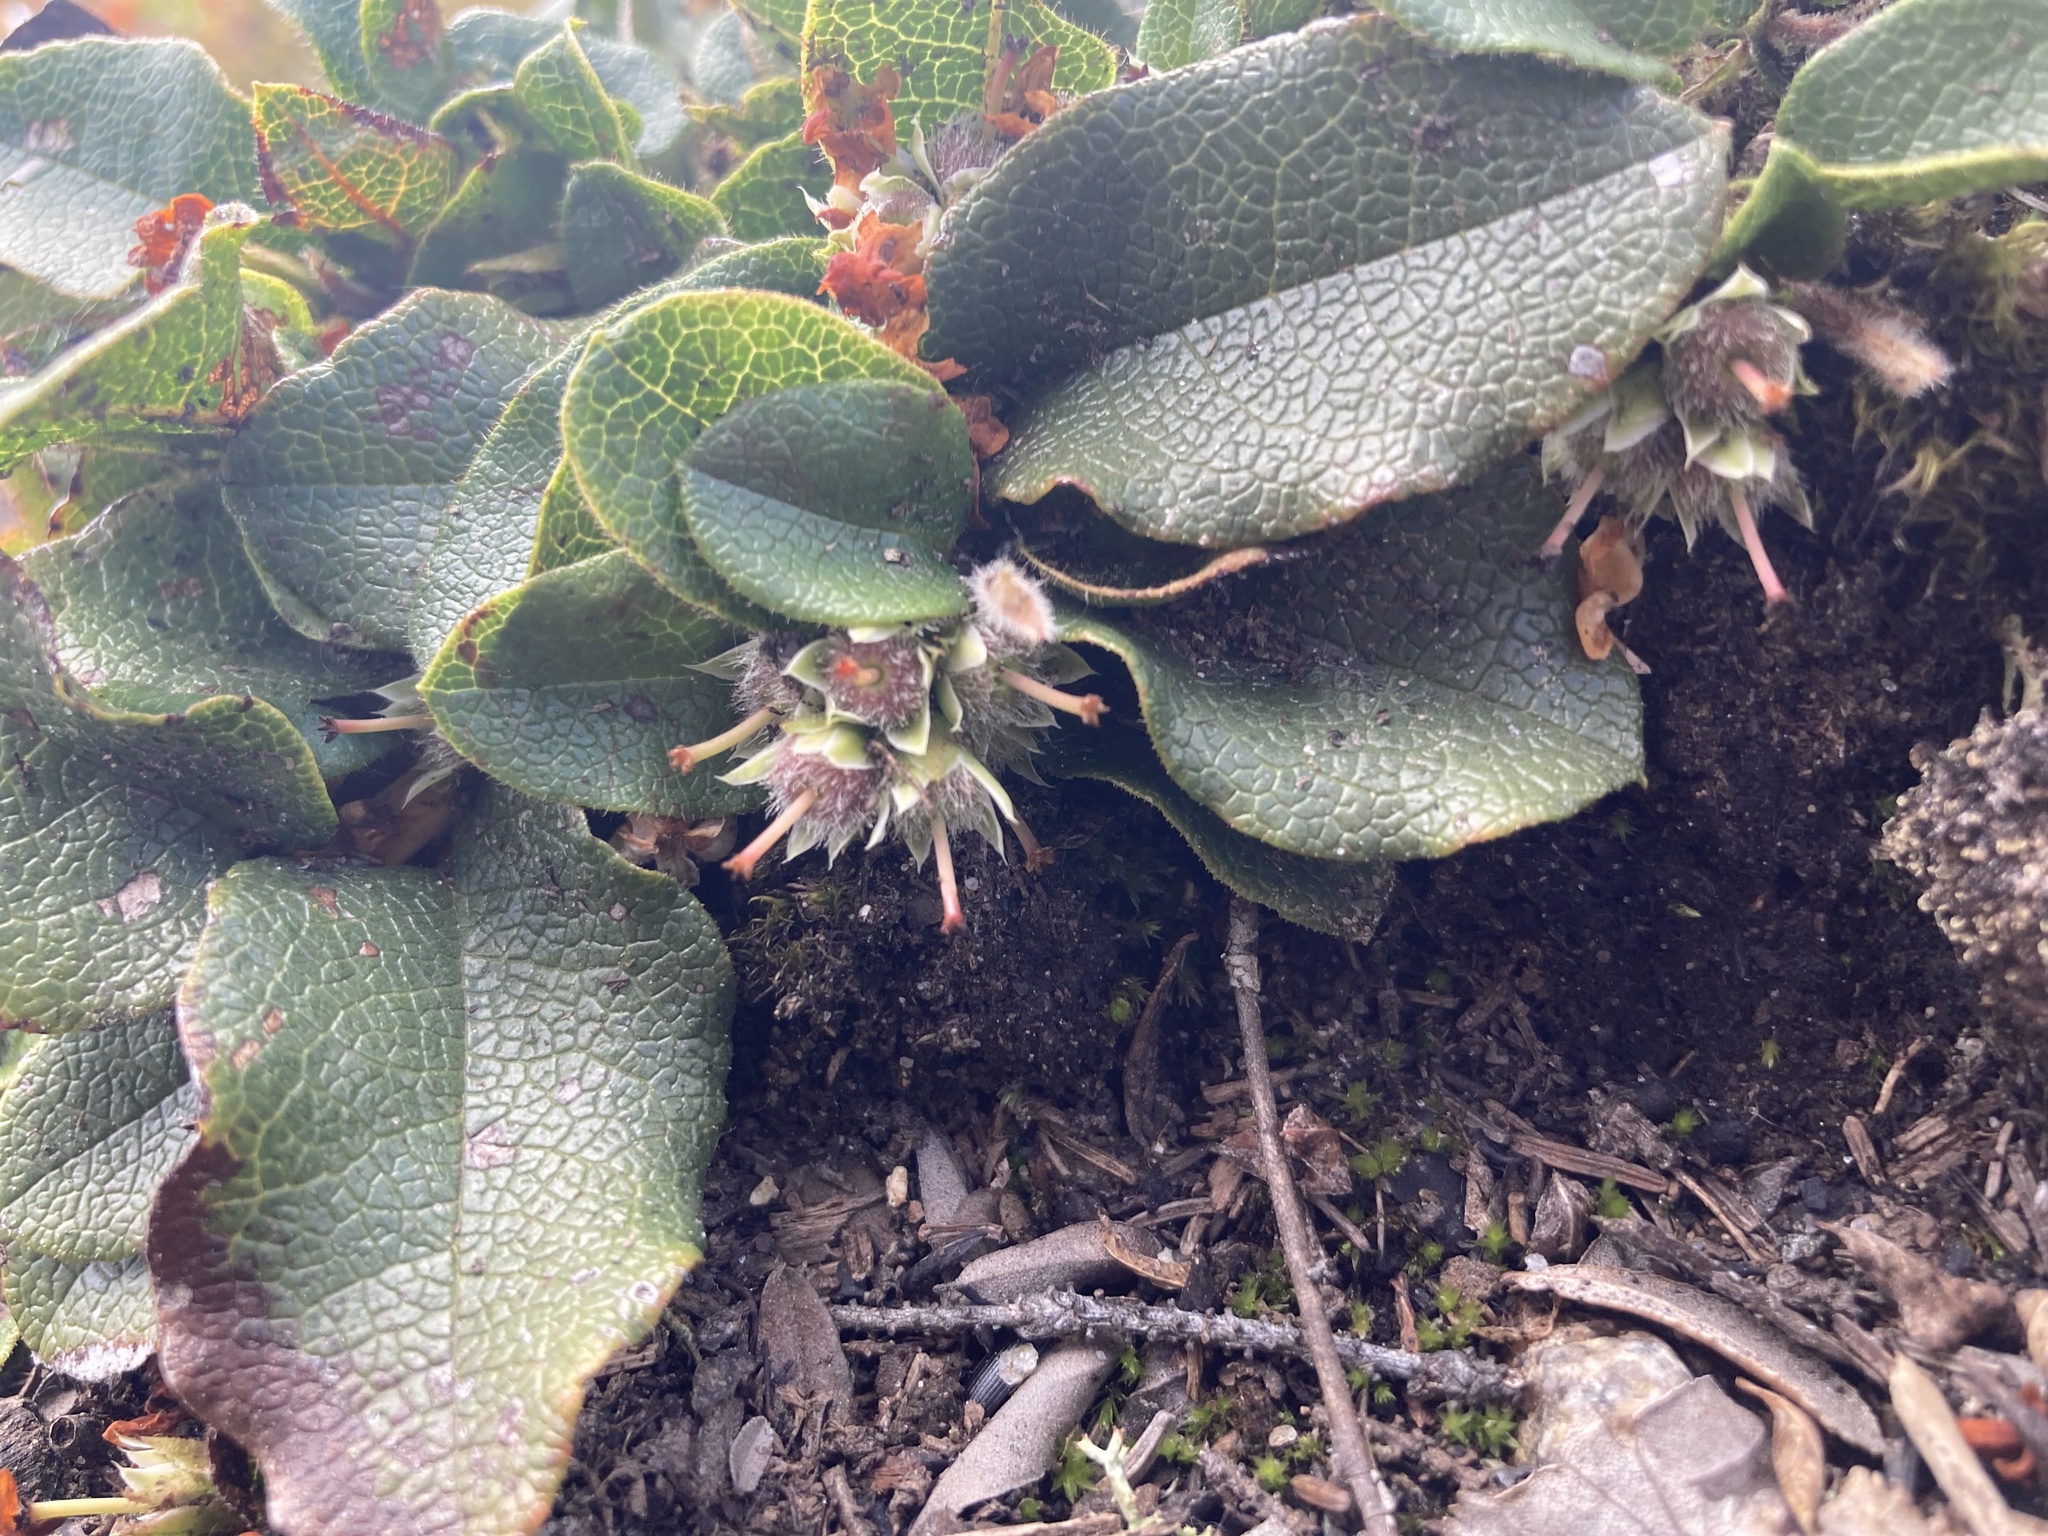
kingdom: Plantae
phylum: Tracheophyta
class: Magnoliopsida
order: Ericales
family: Ericaceae
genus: Epigaea
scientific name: Epigaea repens
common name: Gravelroot
